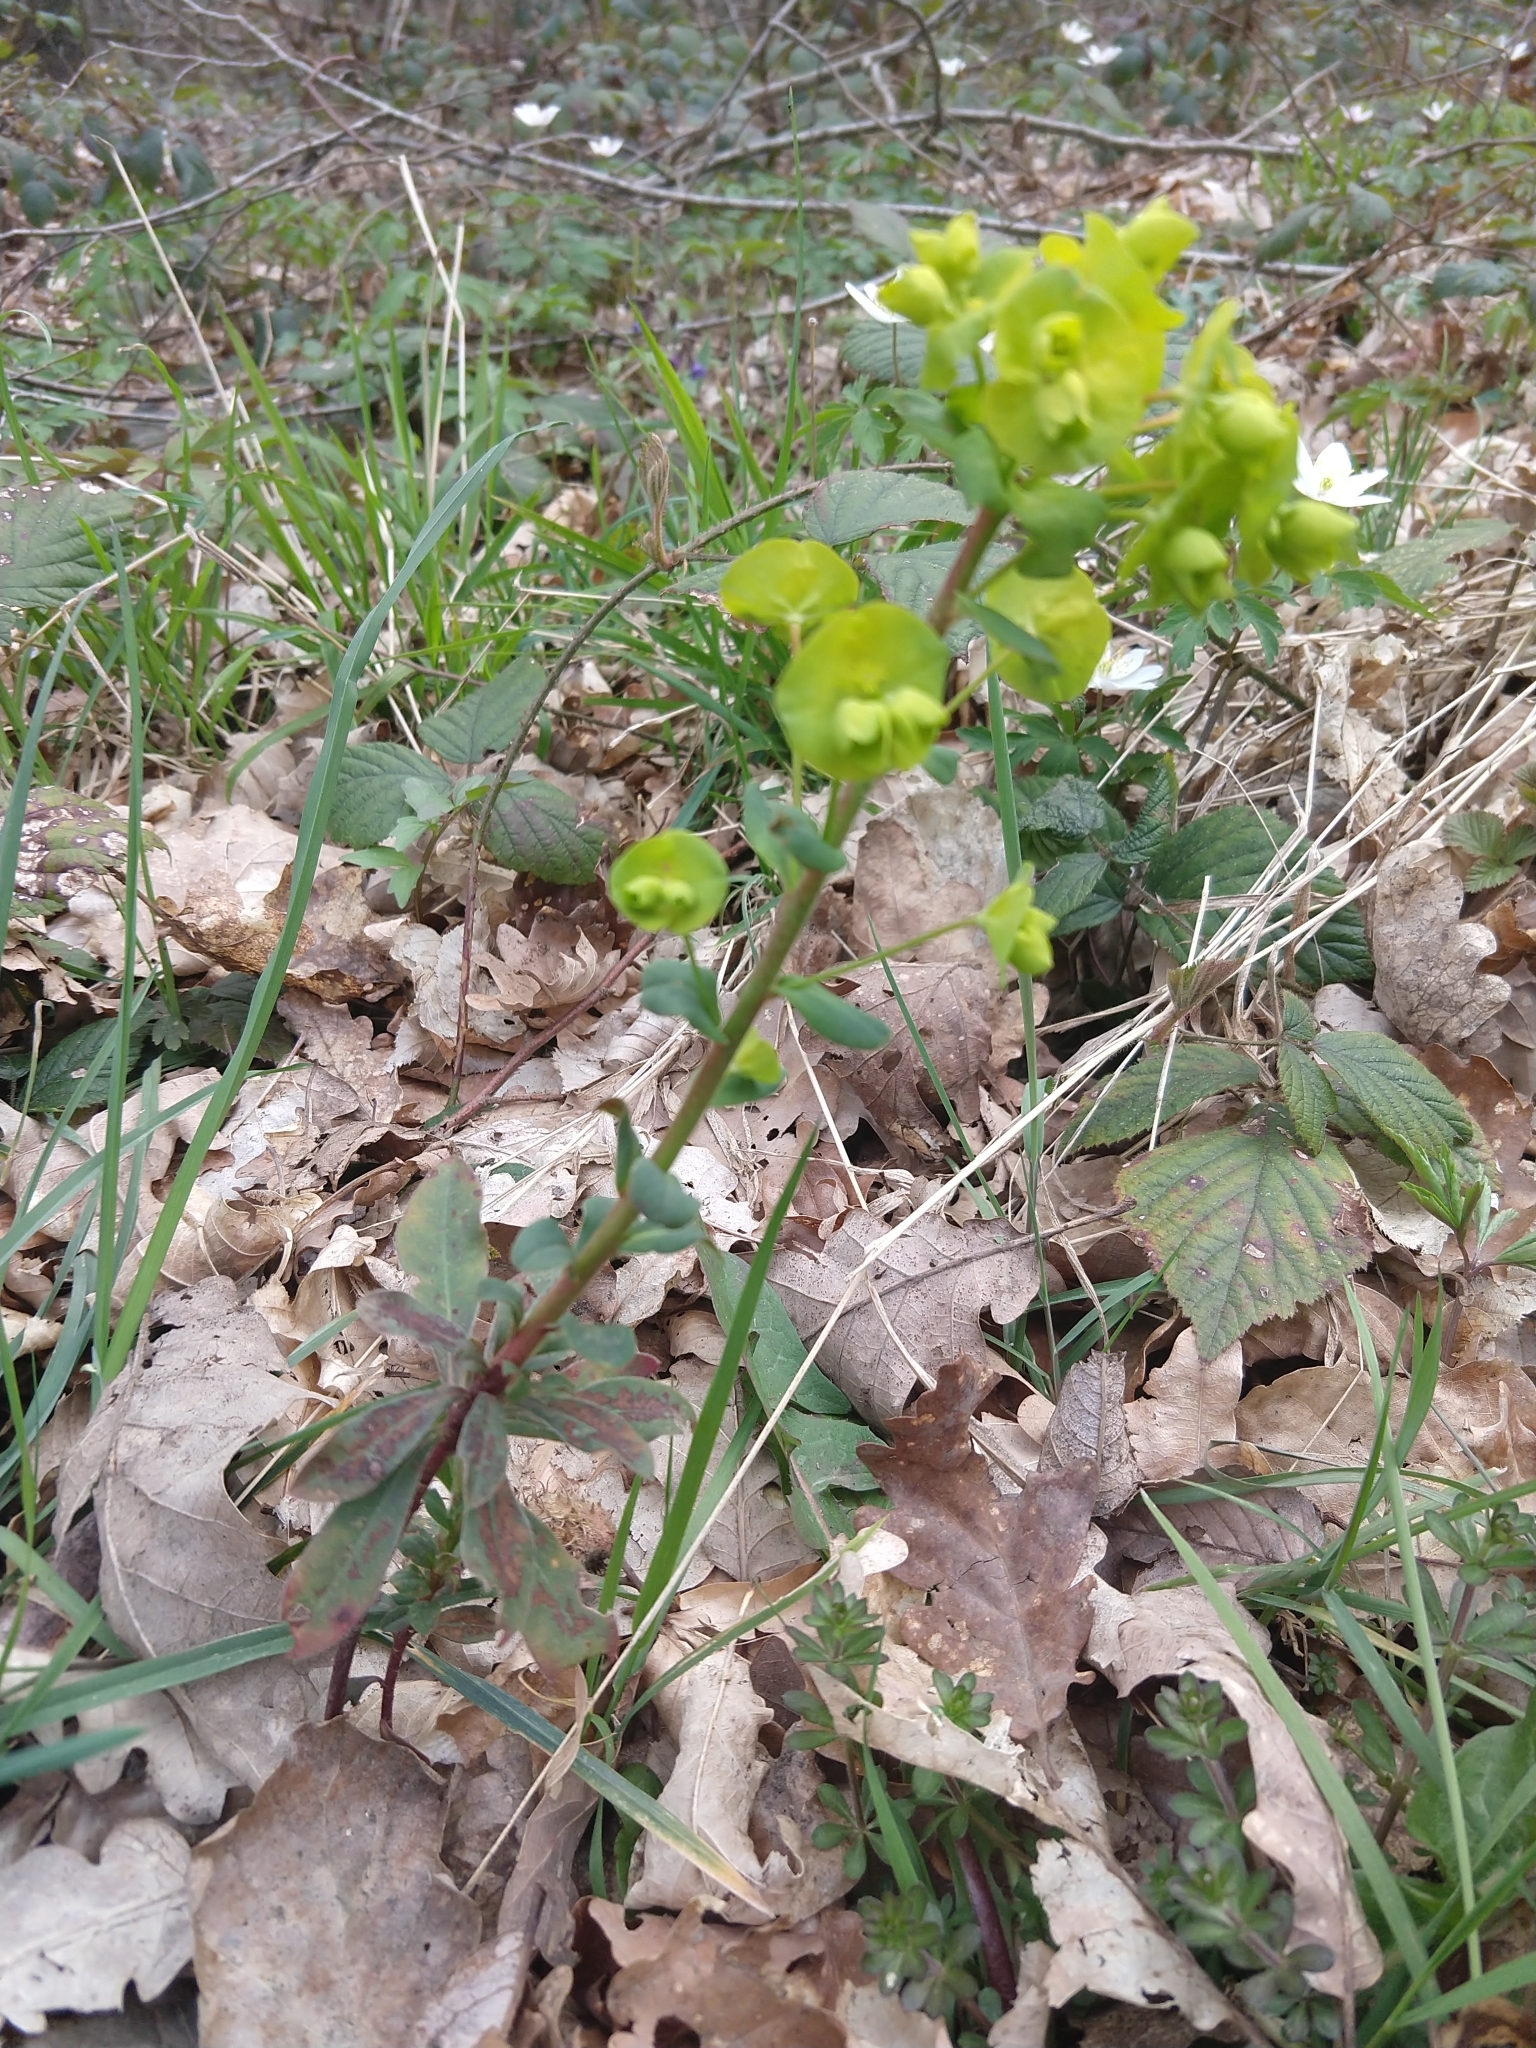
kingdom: Plantae
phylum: Tracheophyta
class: Magnoliopsida
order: Malpighiales
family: Euphorbiaceae
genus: Euphorbia
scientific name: Euphorbia amygdaloides
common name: Wood spurge
